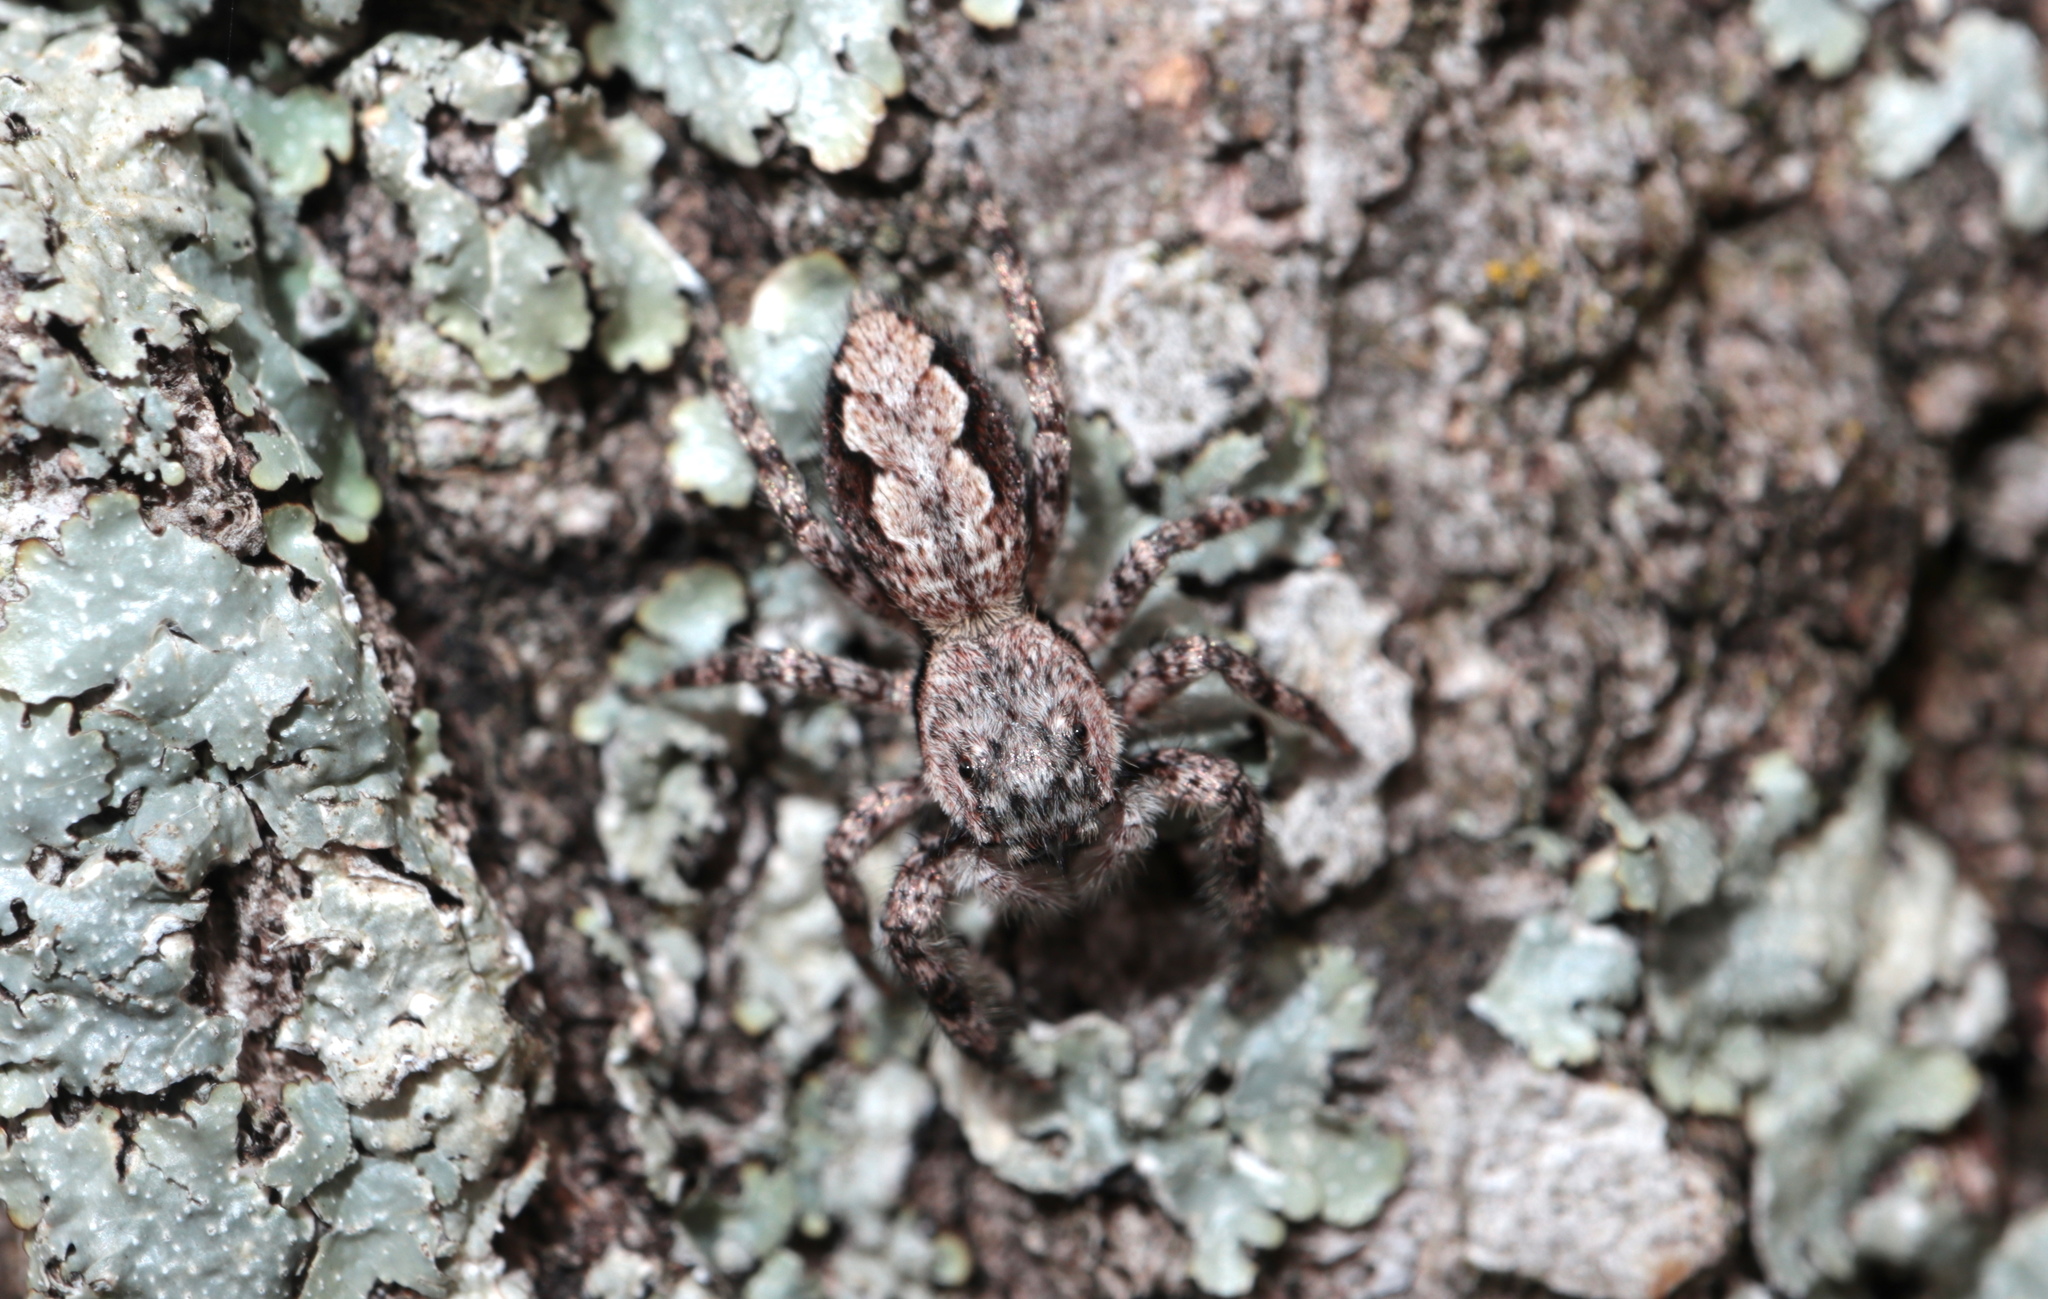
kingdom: Animalia
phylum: Arthropoda
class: Arachnida
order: Araneae
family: Salticidae
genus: Platycryptus
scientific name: Platycryptus undatus
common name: Tan jumping spider
